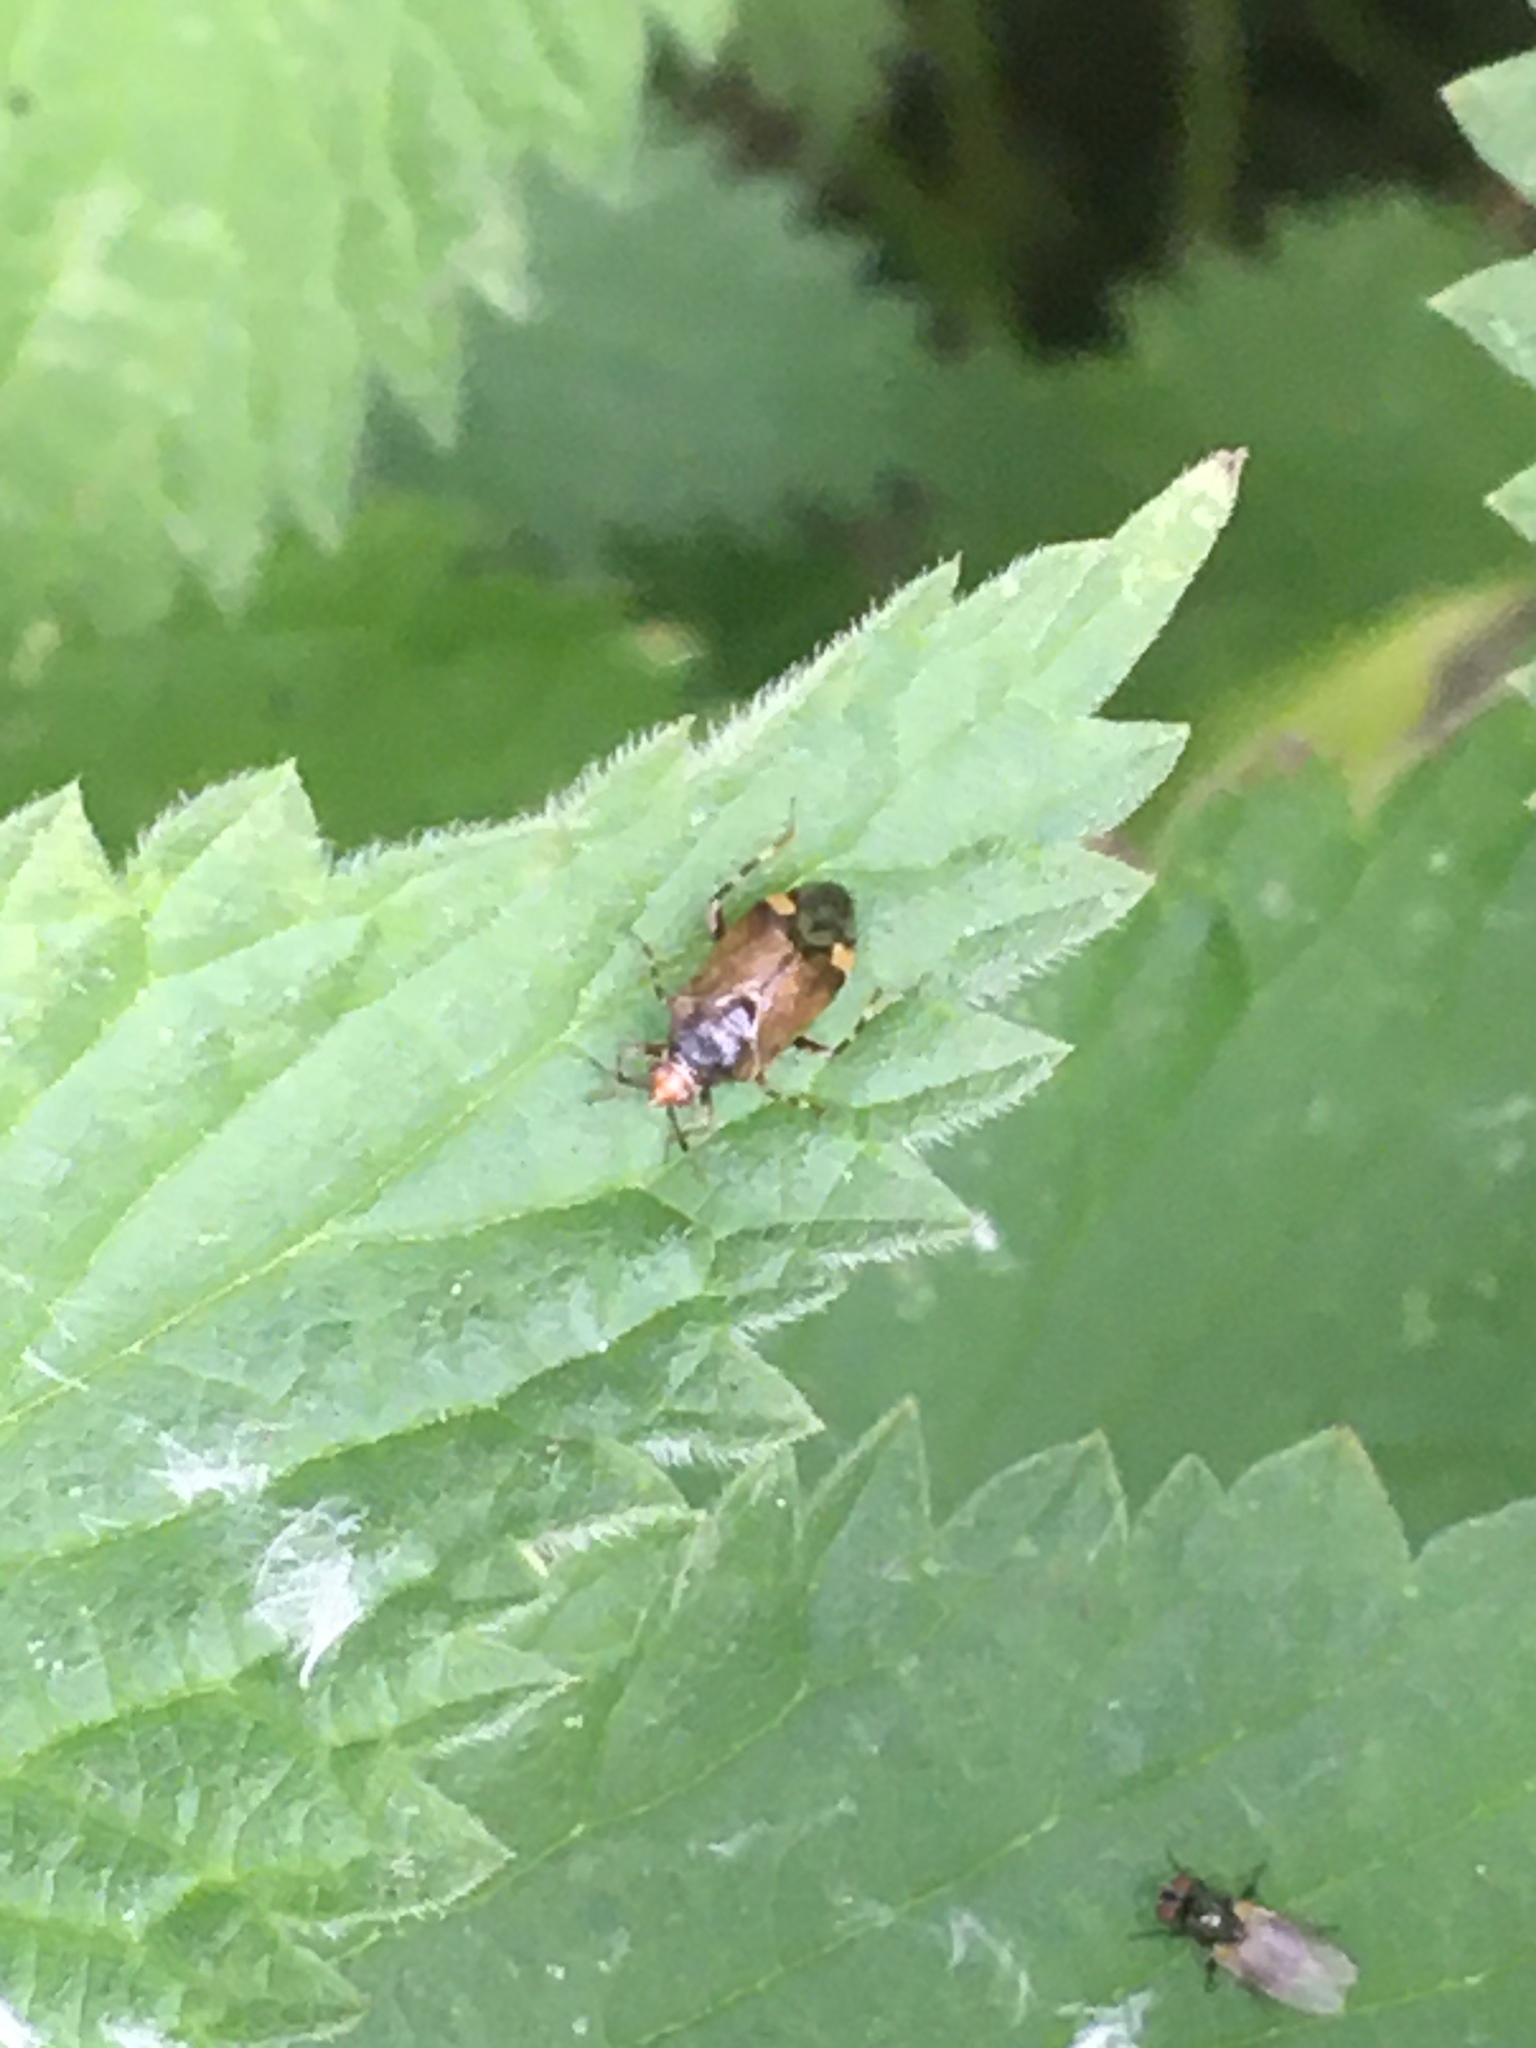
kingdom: Animalia
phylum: Arthropoda
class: Insecta
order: Hemiptera
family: Miridae
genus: Deraeocoris
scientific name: Deraeocoris flavilinea
